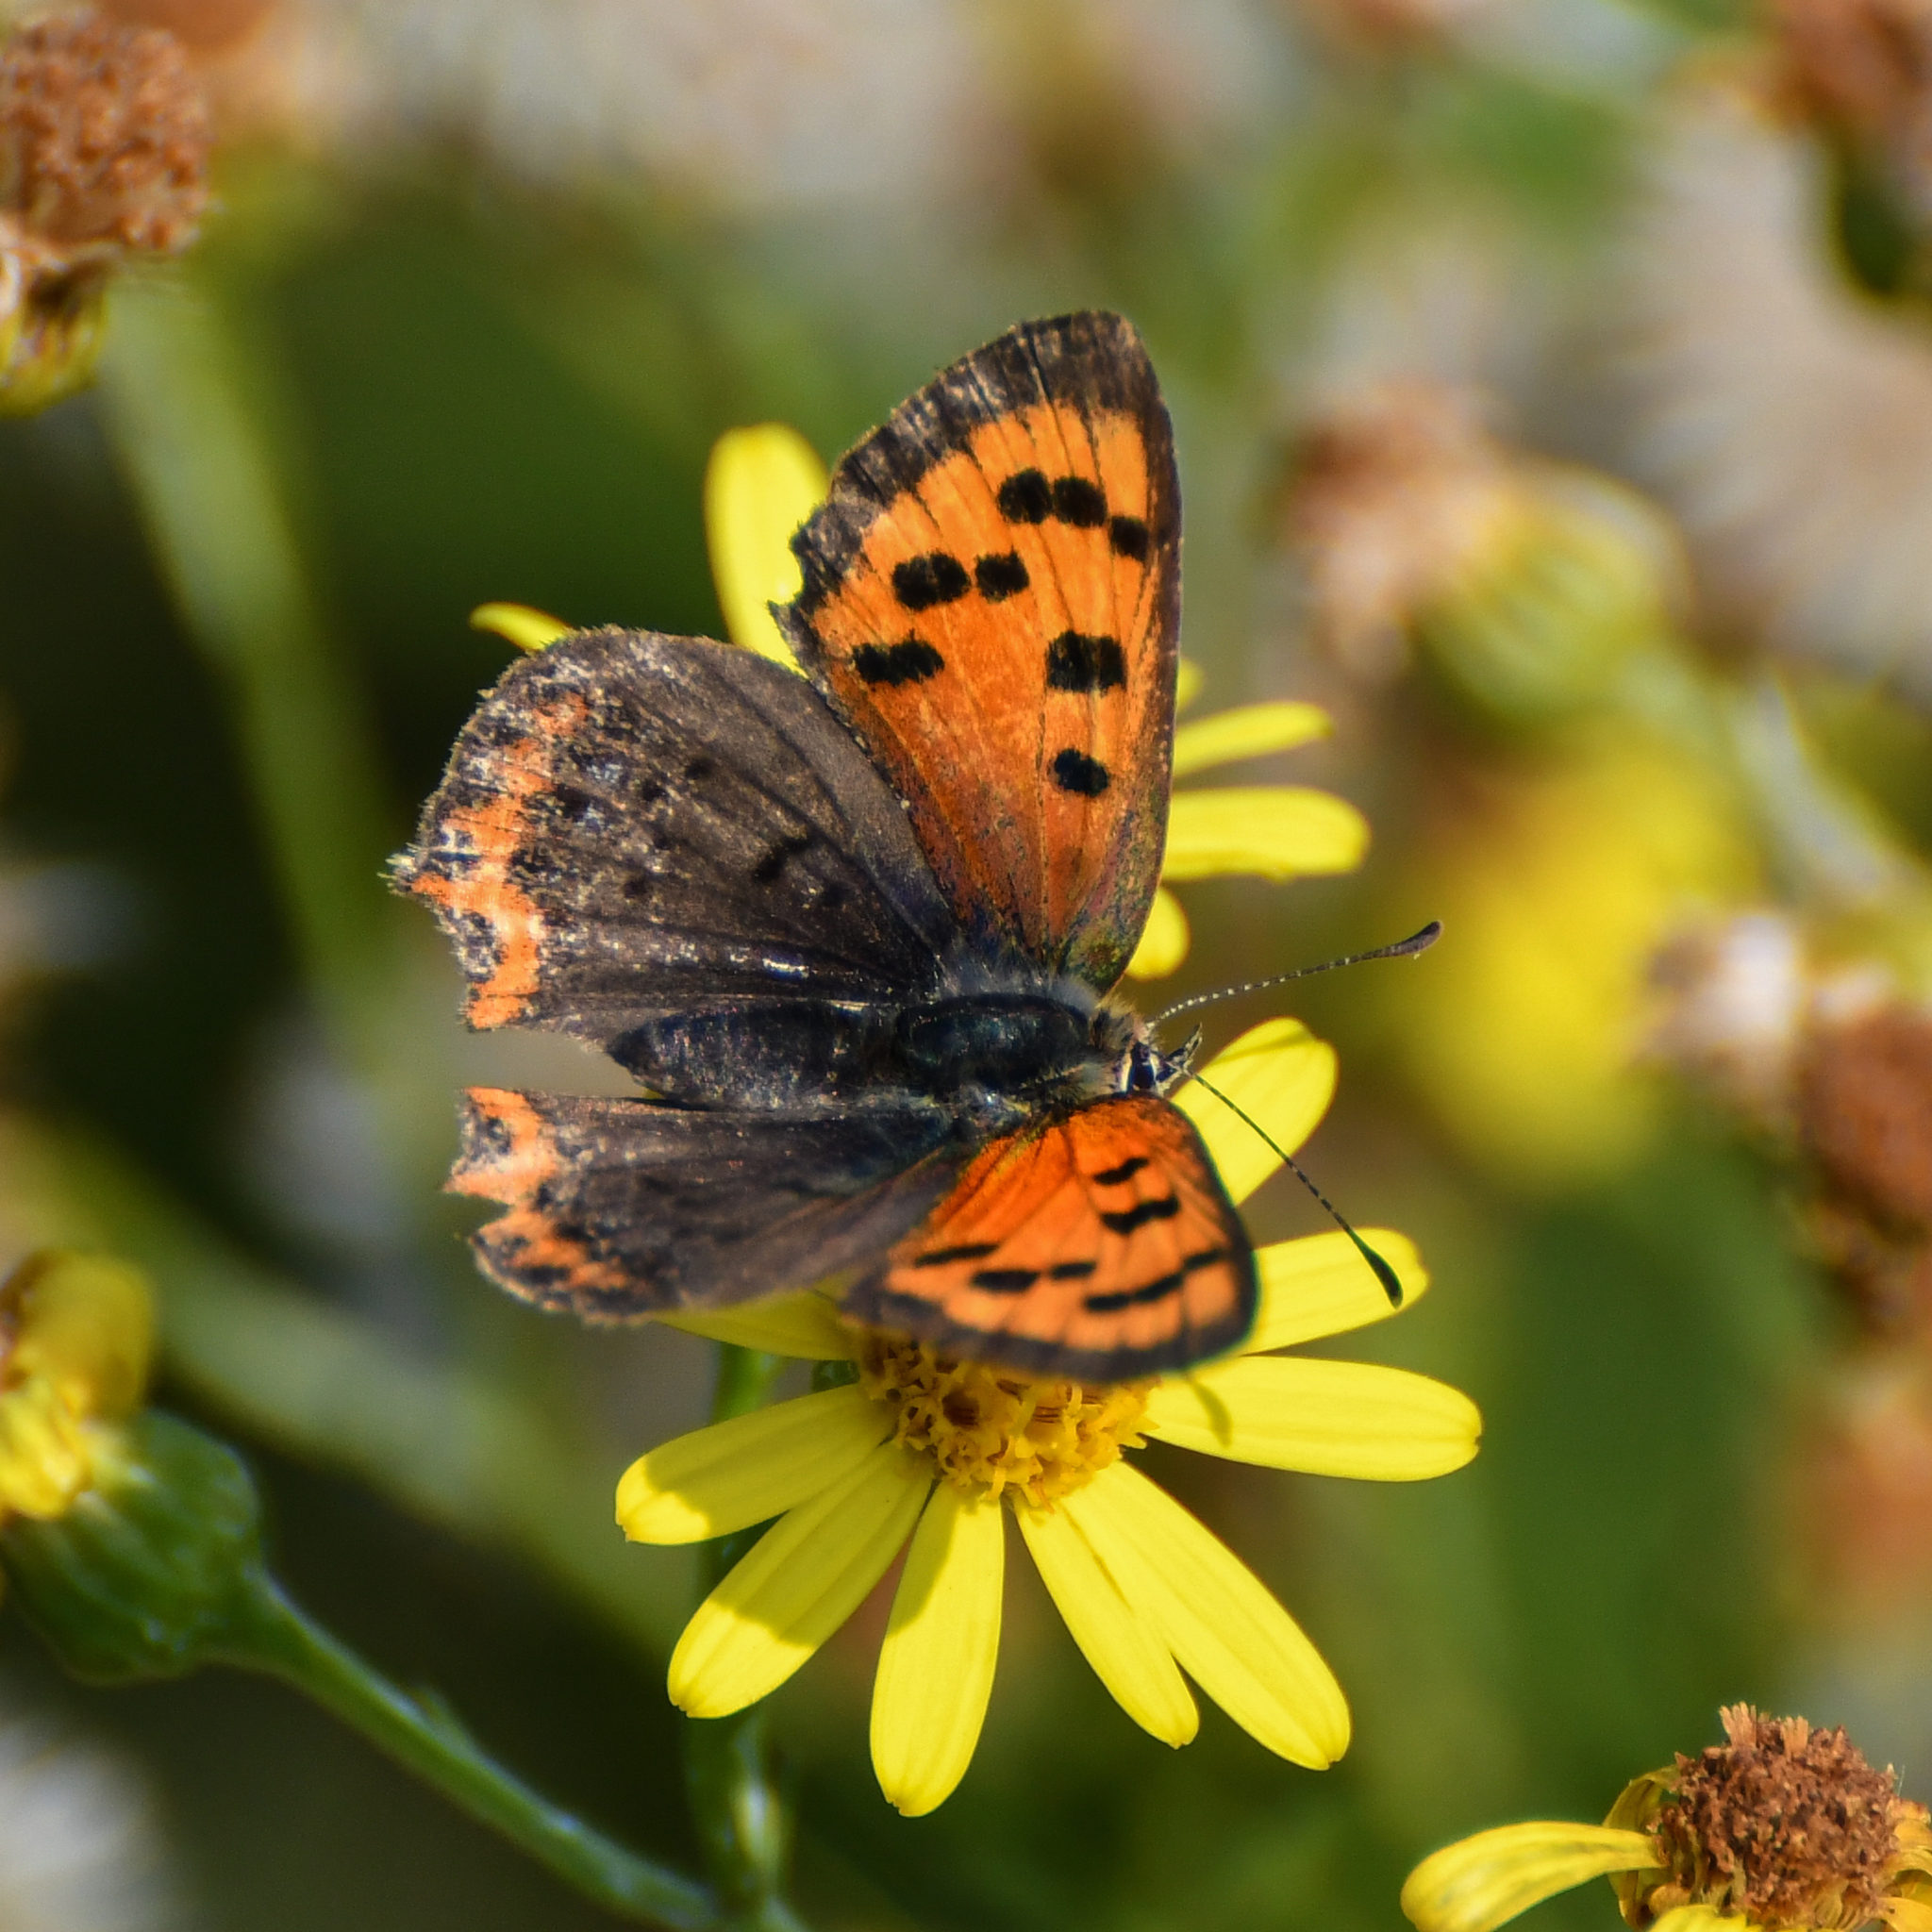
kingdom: Animalia
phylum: Arthropoda
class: Insecta
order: Lepidoptera
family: Lycaenidae
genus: Lycaena
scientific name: Lycaena phlaeas
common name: Small copper
